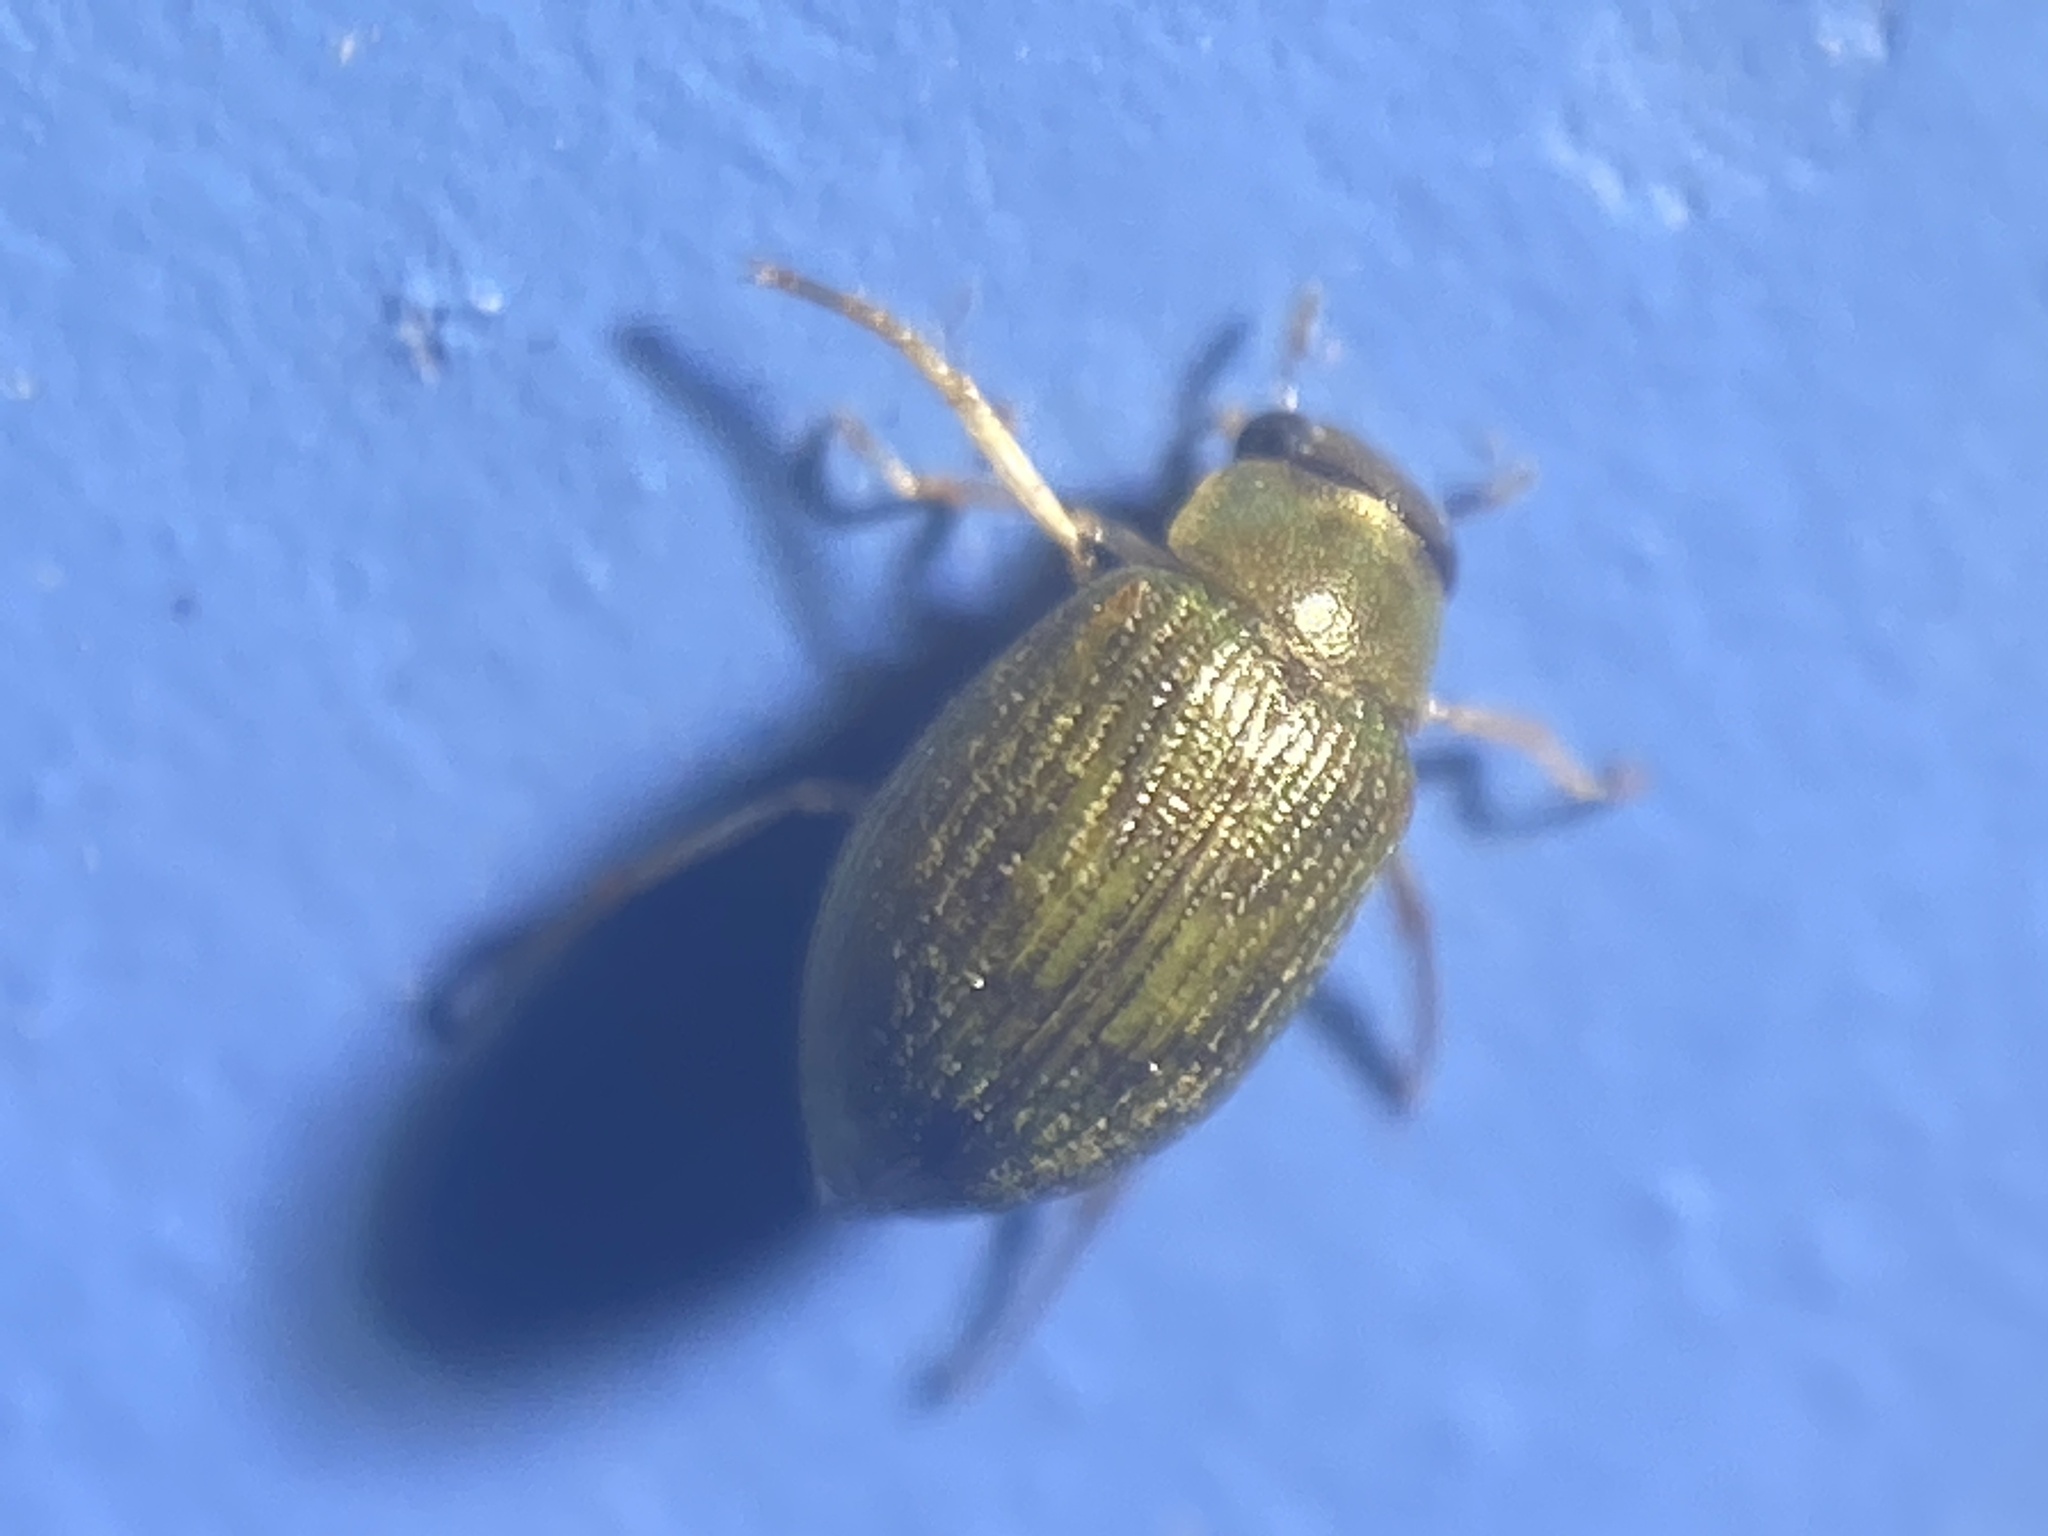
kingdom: Animalia
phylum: Arthropoda
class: Insecta
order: Coleoptera
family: Hydrophilidae
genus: Berosus
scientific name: Berosus
